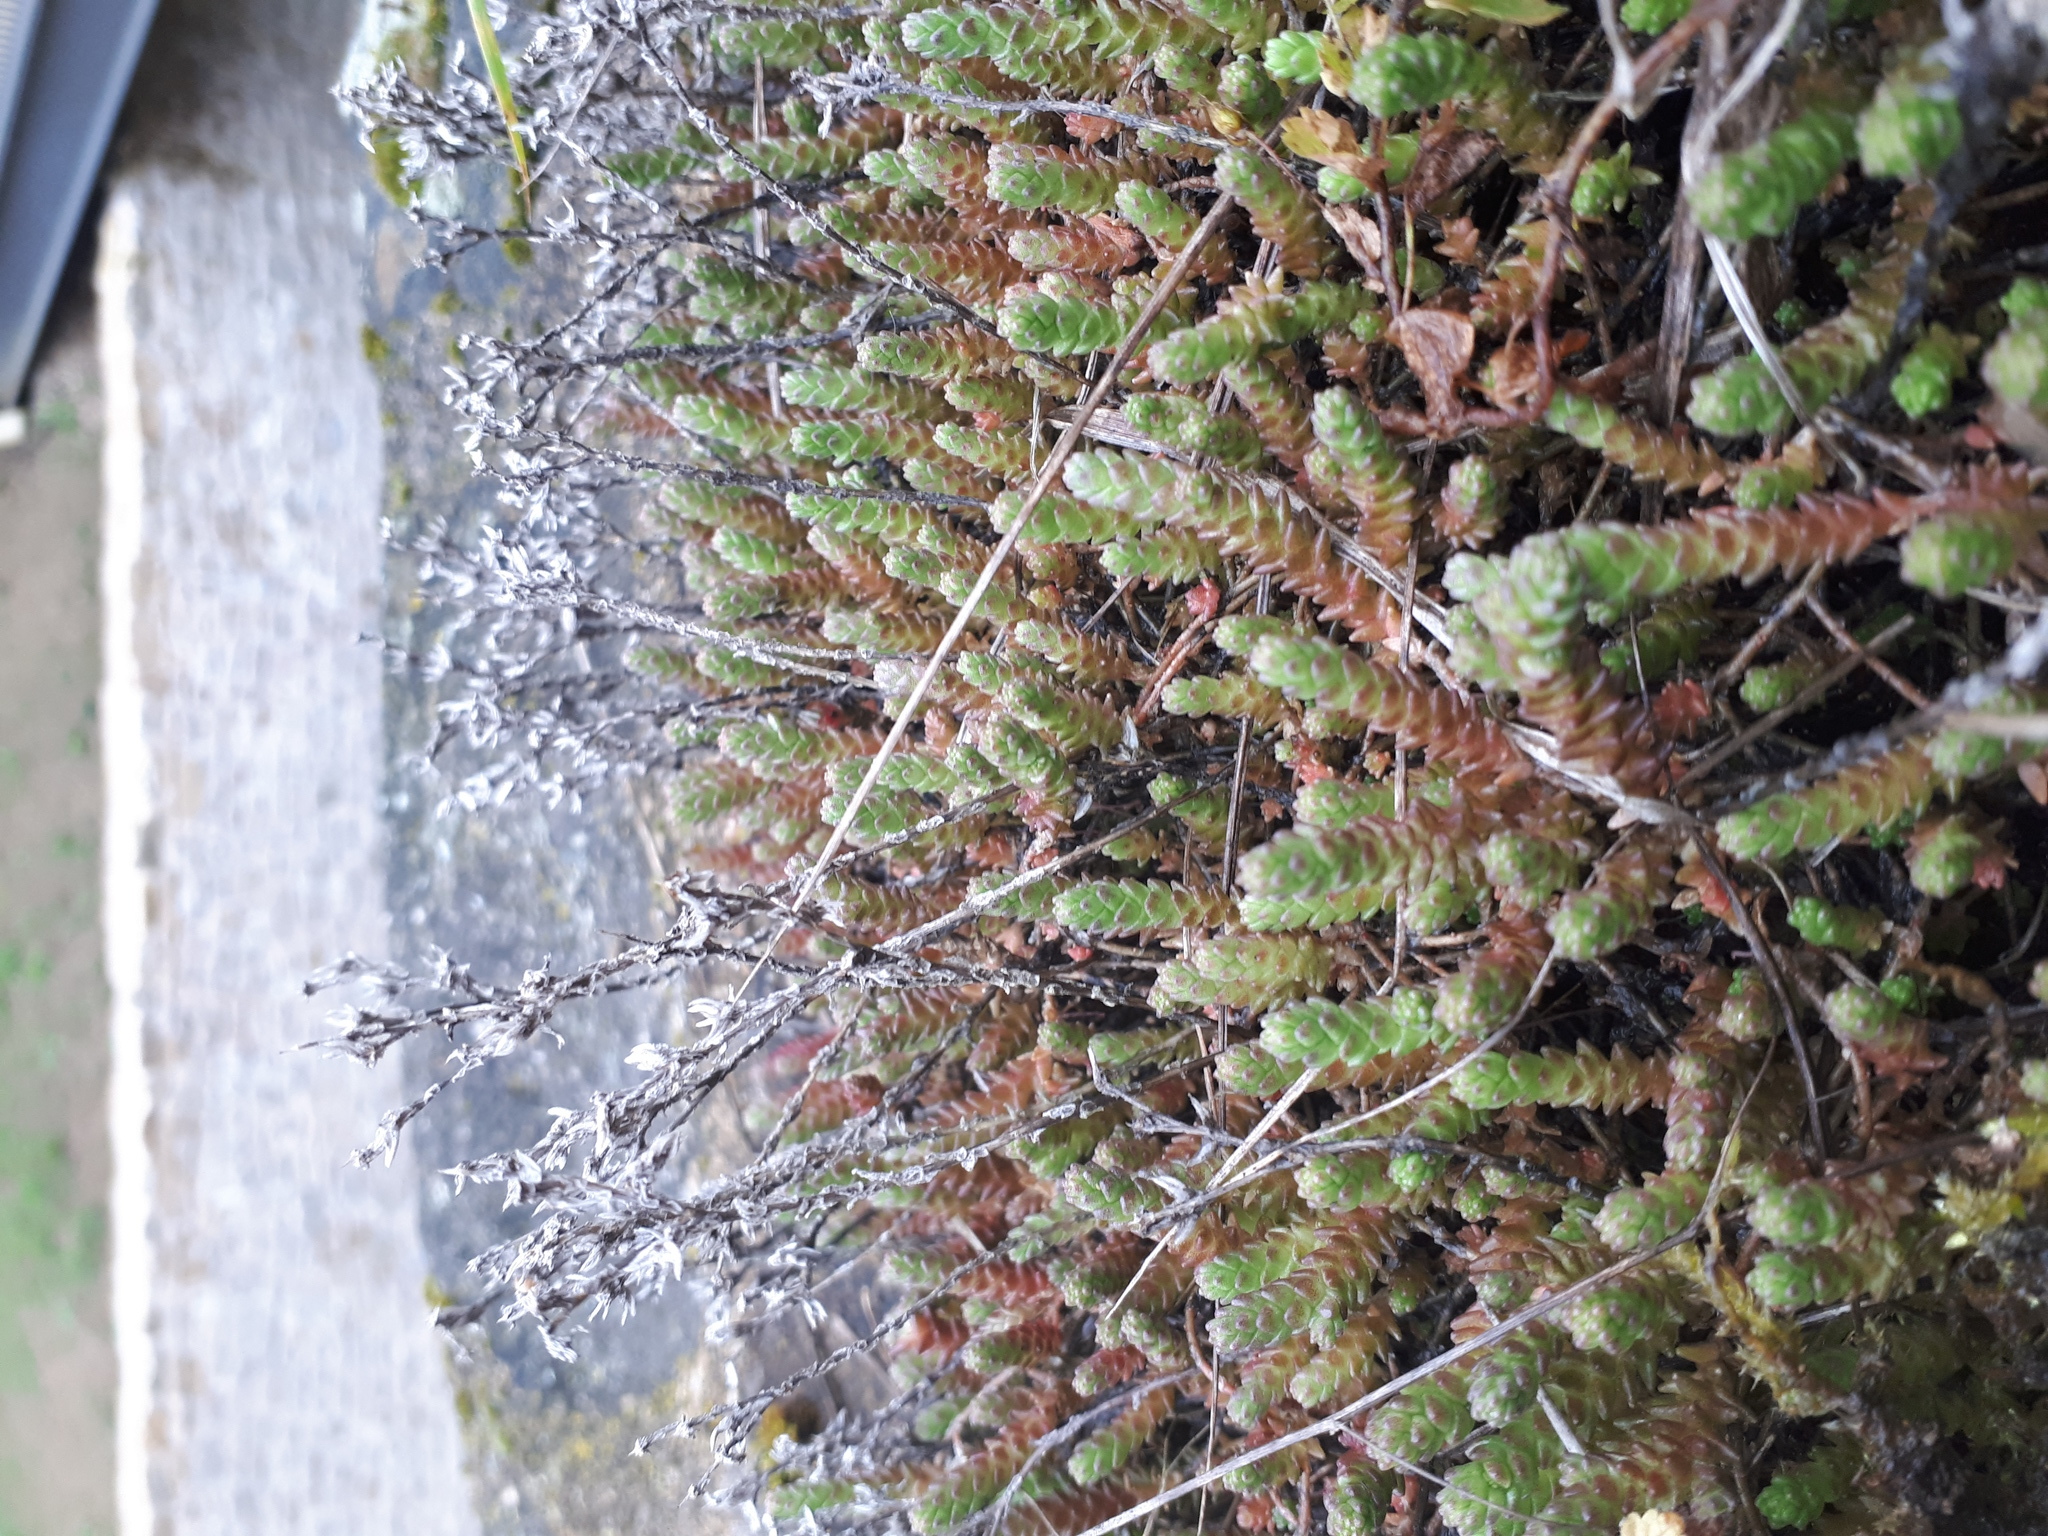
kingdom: Plantae
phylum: Tracheophyta
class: Magnoliopsida
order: Saxifragales
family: Crassulaceae
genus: Sedum
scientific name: Sedum acre
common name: Biting stonecrop
